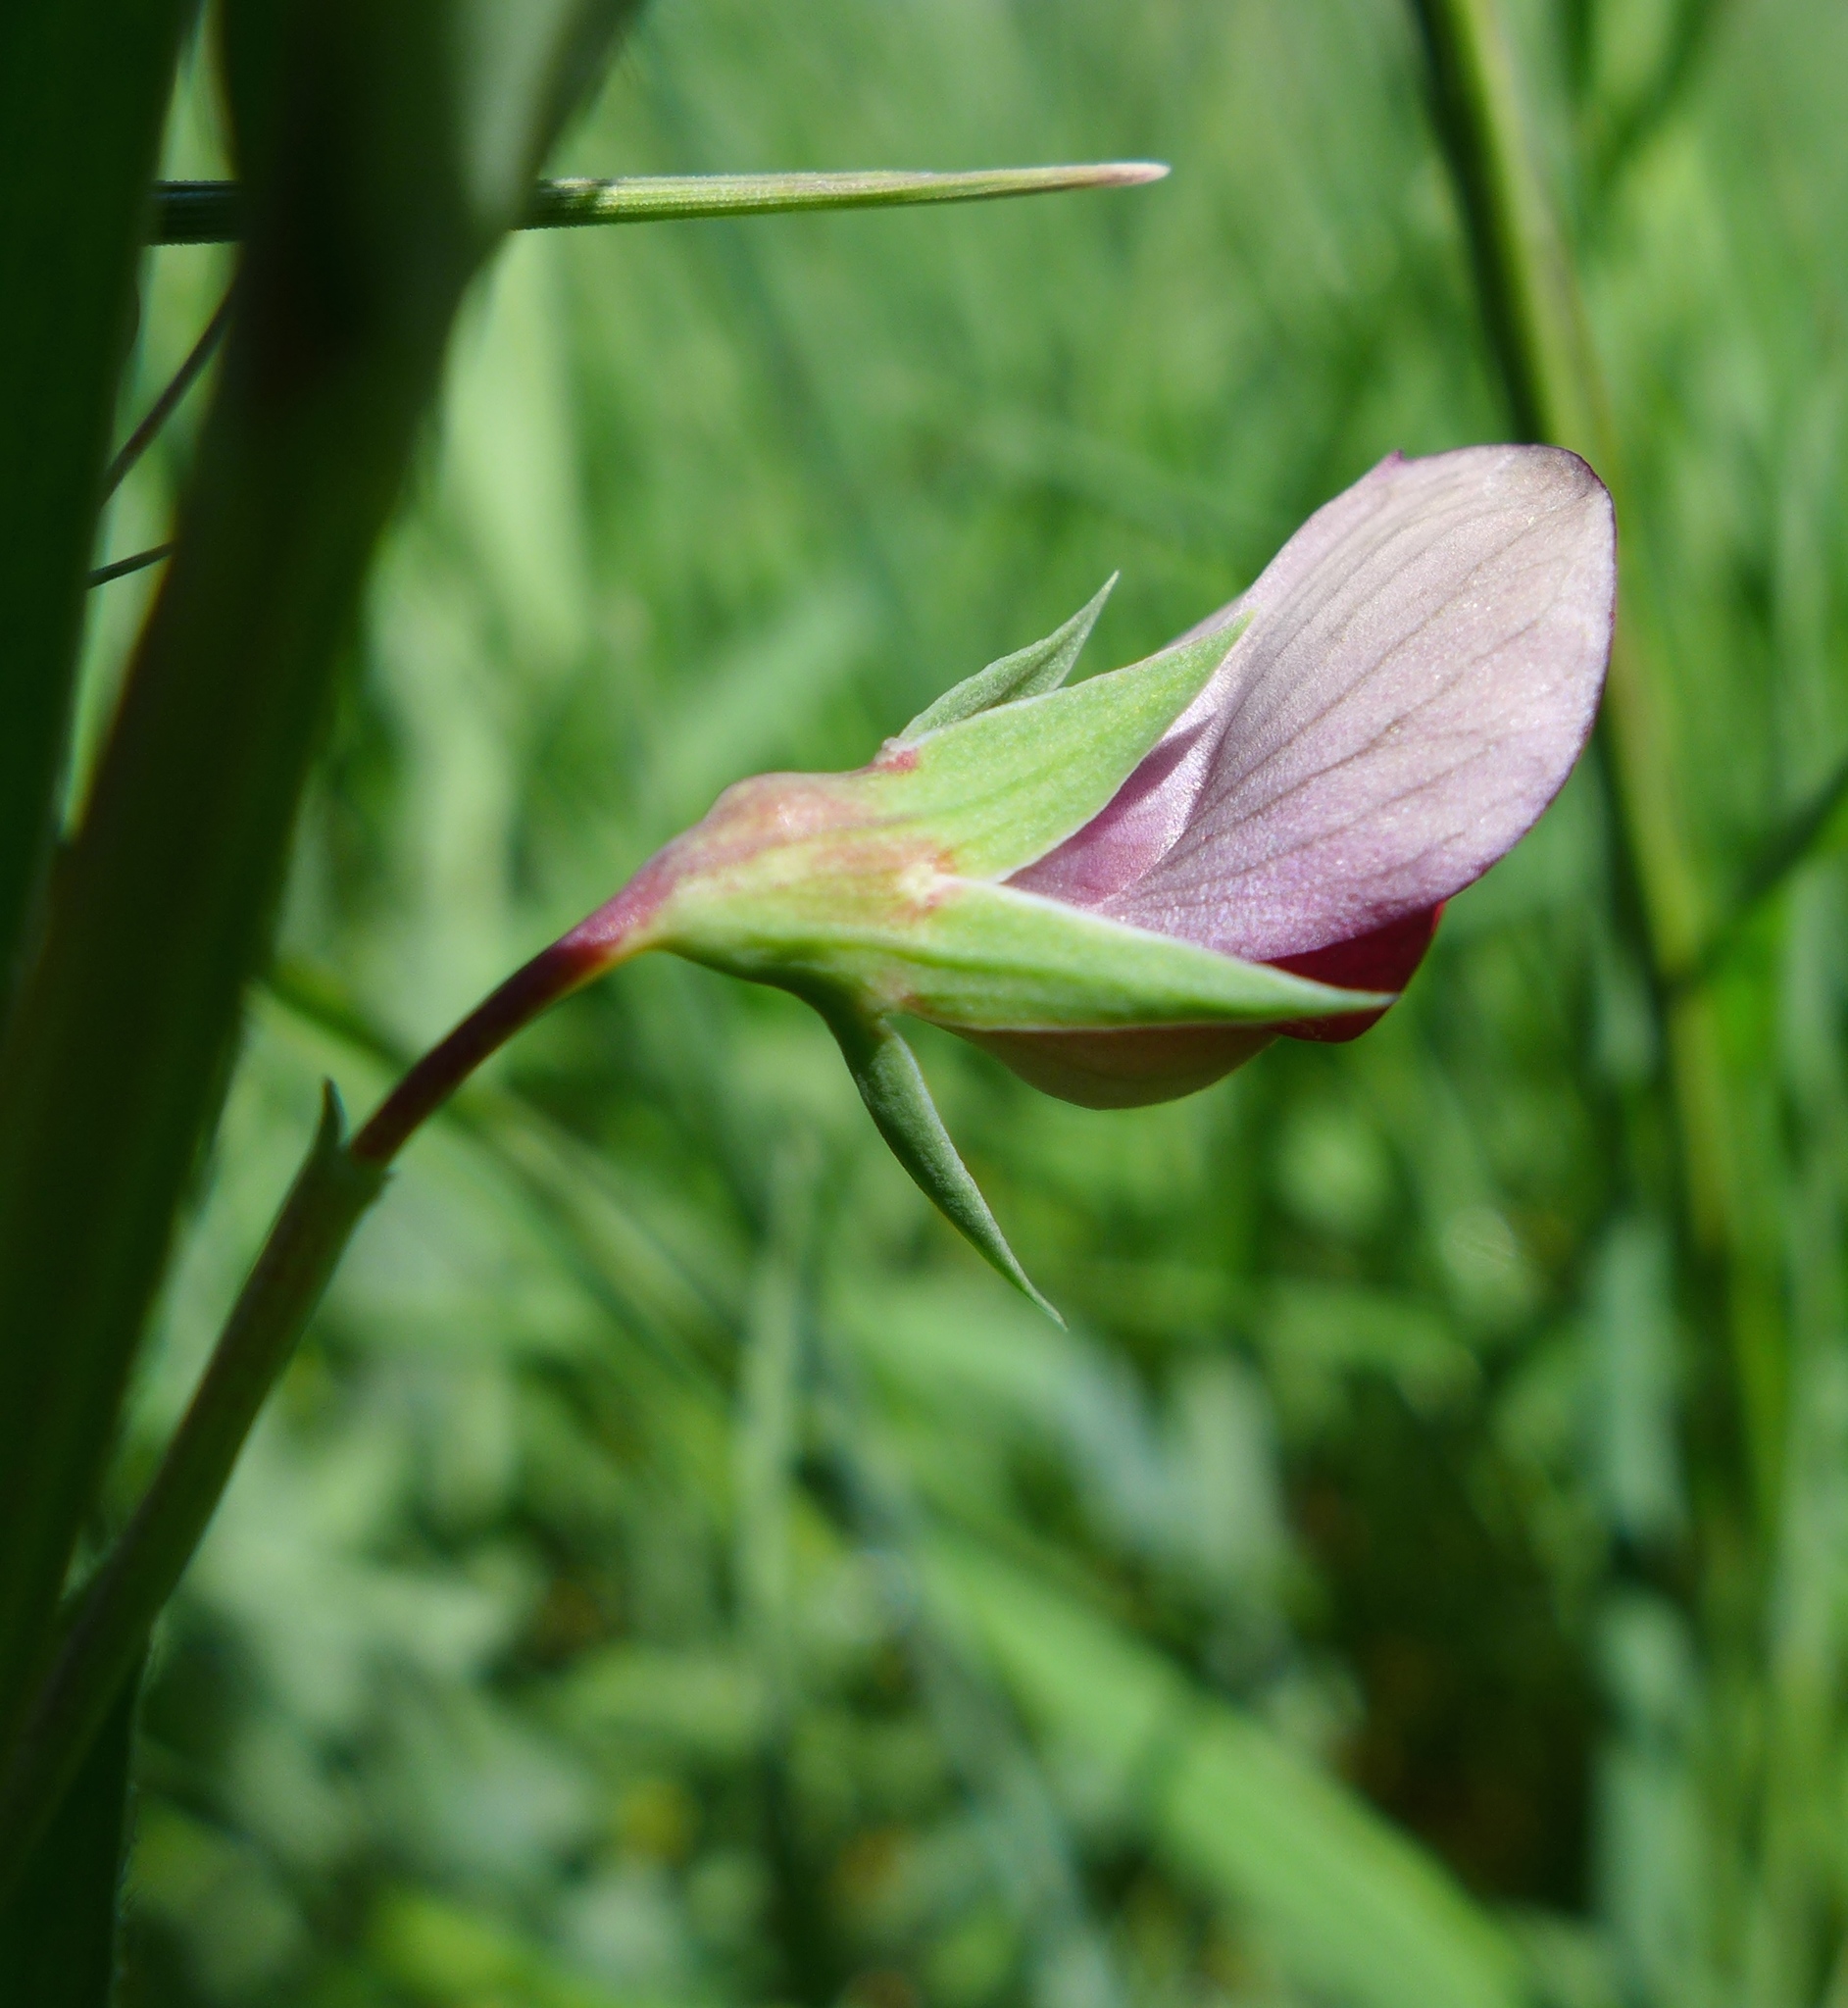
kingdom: Plantae
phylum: Tracheophyta
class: Magnoliopsida
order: Fabales
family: Fabaceae
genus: Lathyrus
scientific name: Lathyrus cicera
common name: Red vetchling
